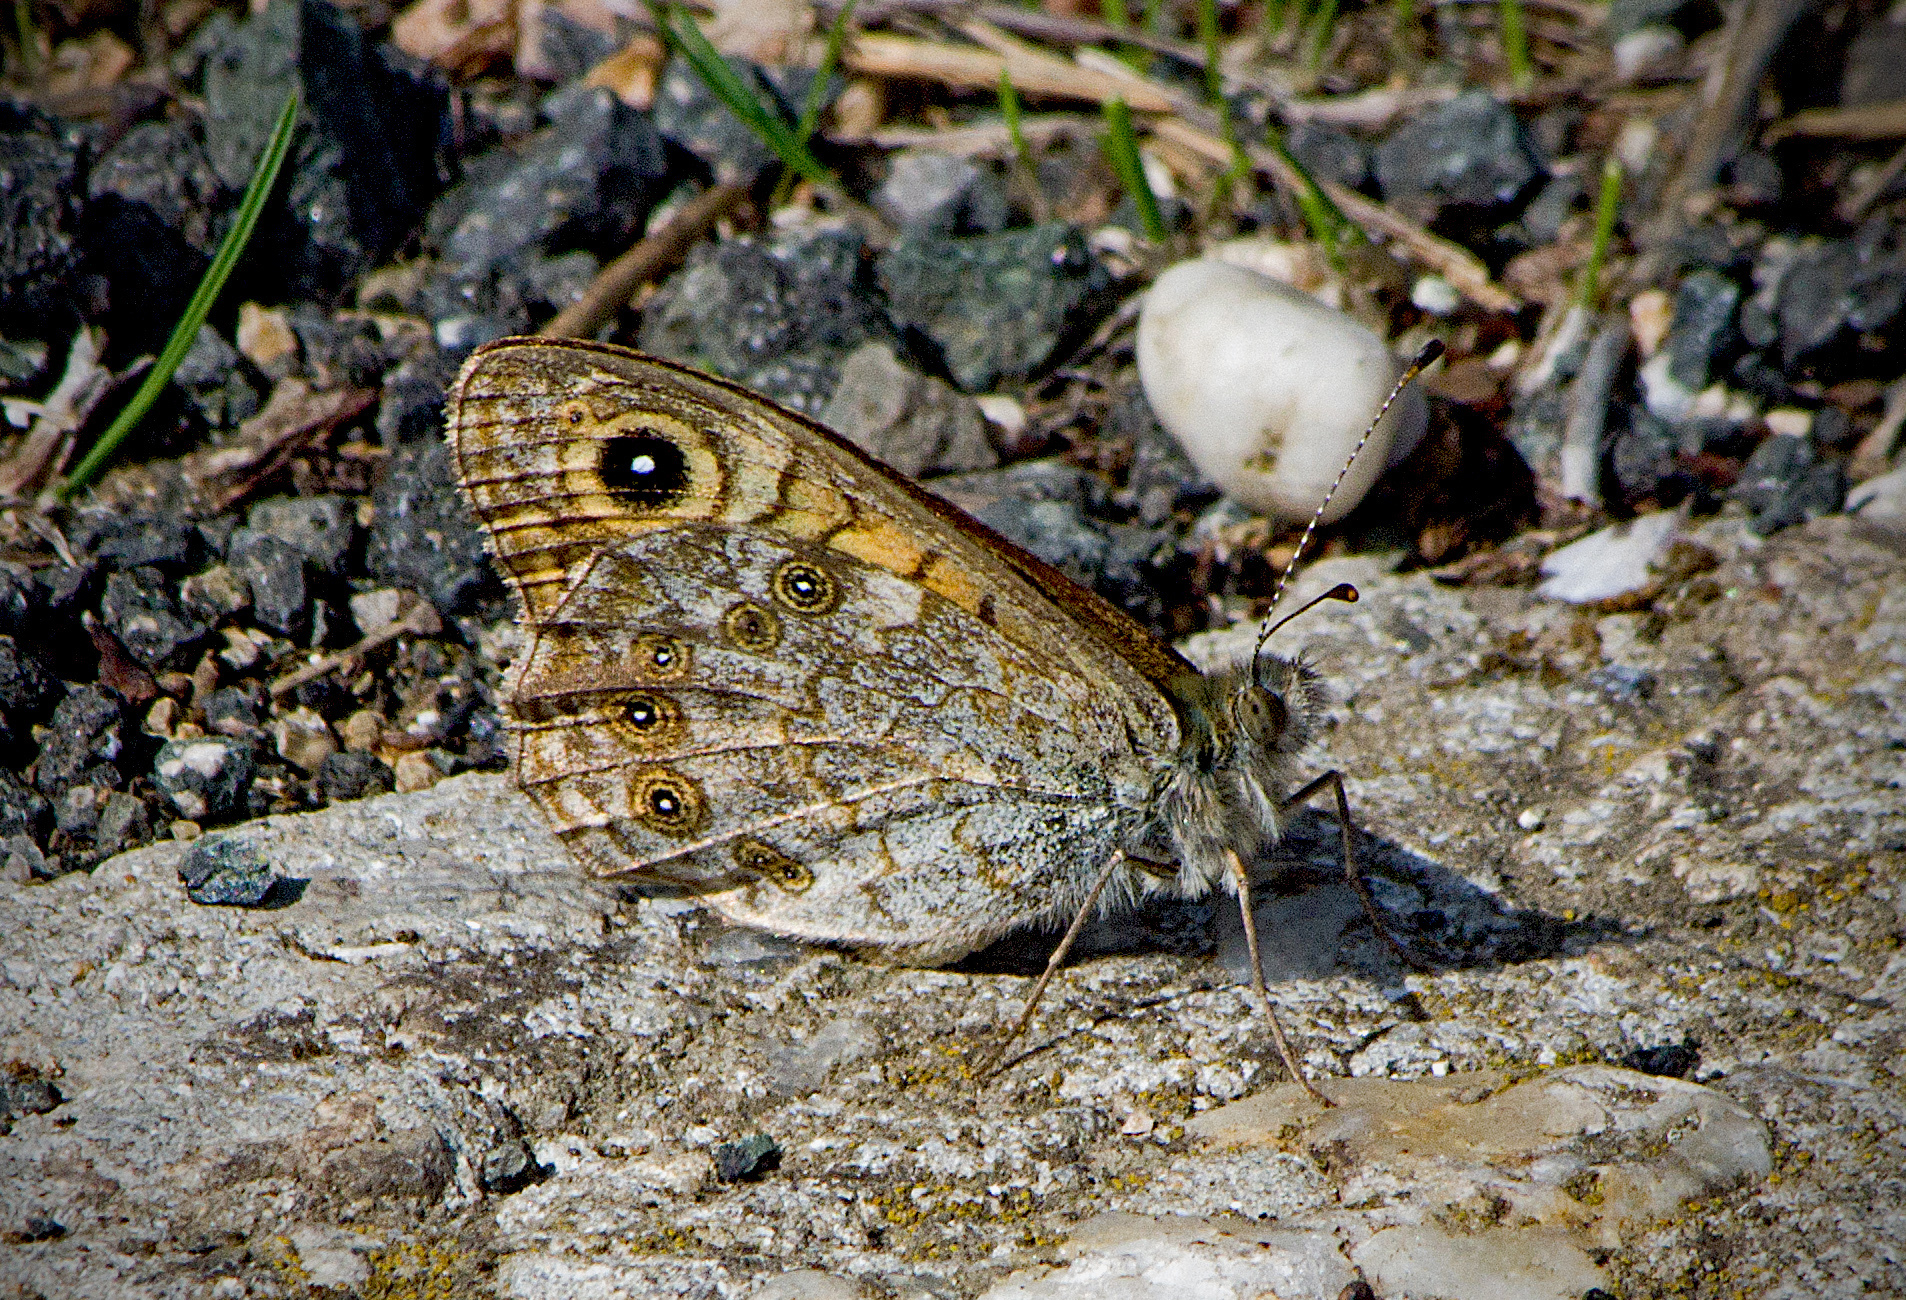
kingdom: Animalia
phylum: Arthropoda
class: Insecta
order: Lepidoptera
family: Nymphalidae
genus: Pararge
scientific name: Pararge Lasiommata megera
